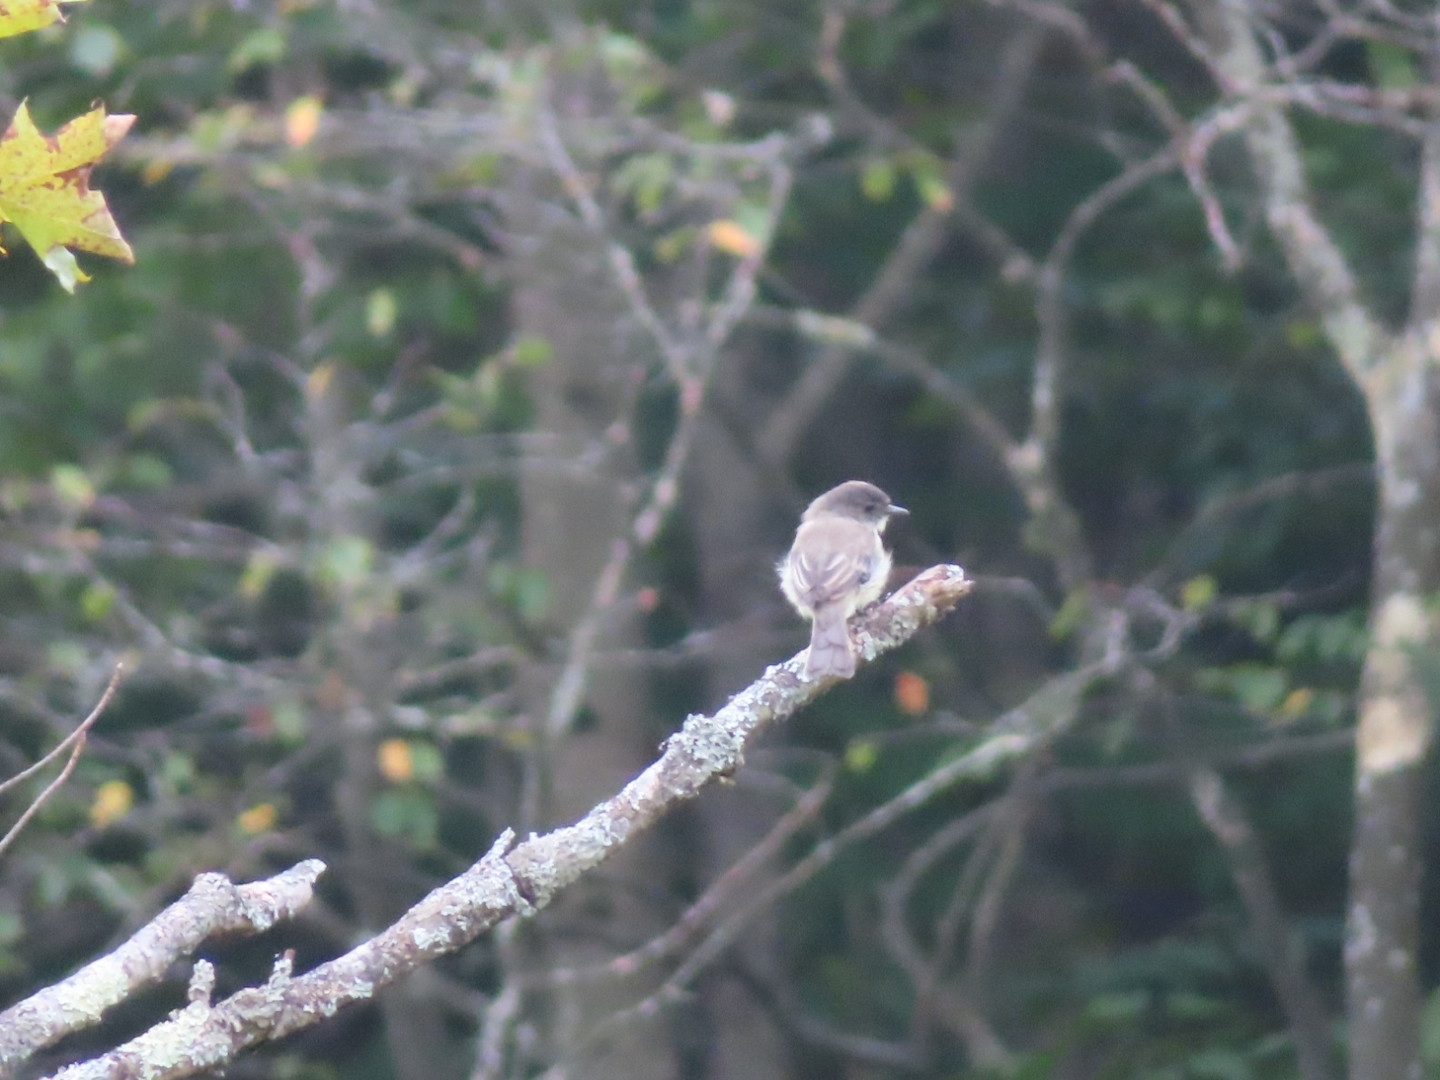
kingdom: Animalia
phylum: Chordata
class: Aves
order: Passeriformes
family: Tyrannidae
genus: Sayornis
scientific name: Sayornis phoebe
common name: Eastern phoebe
